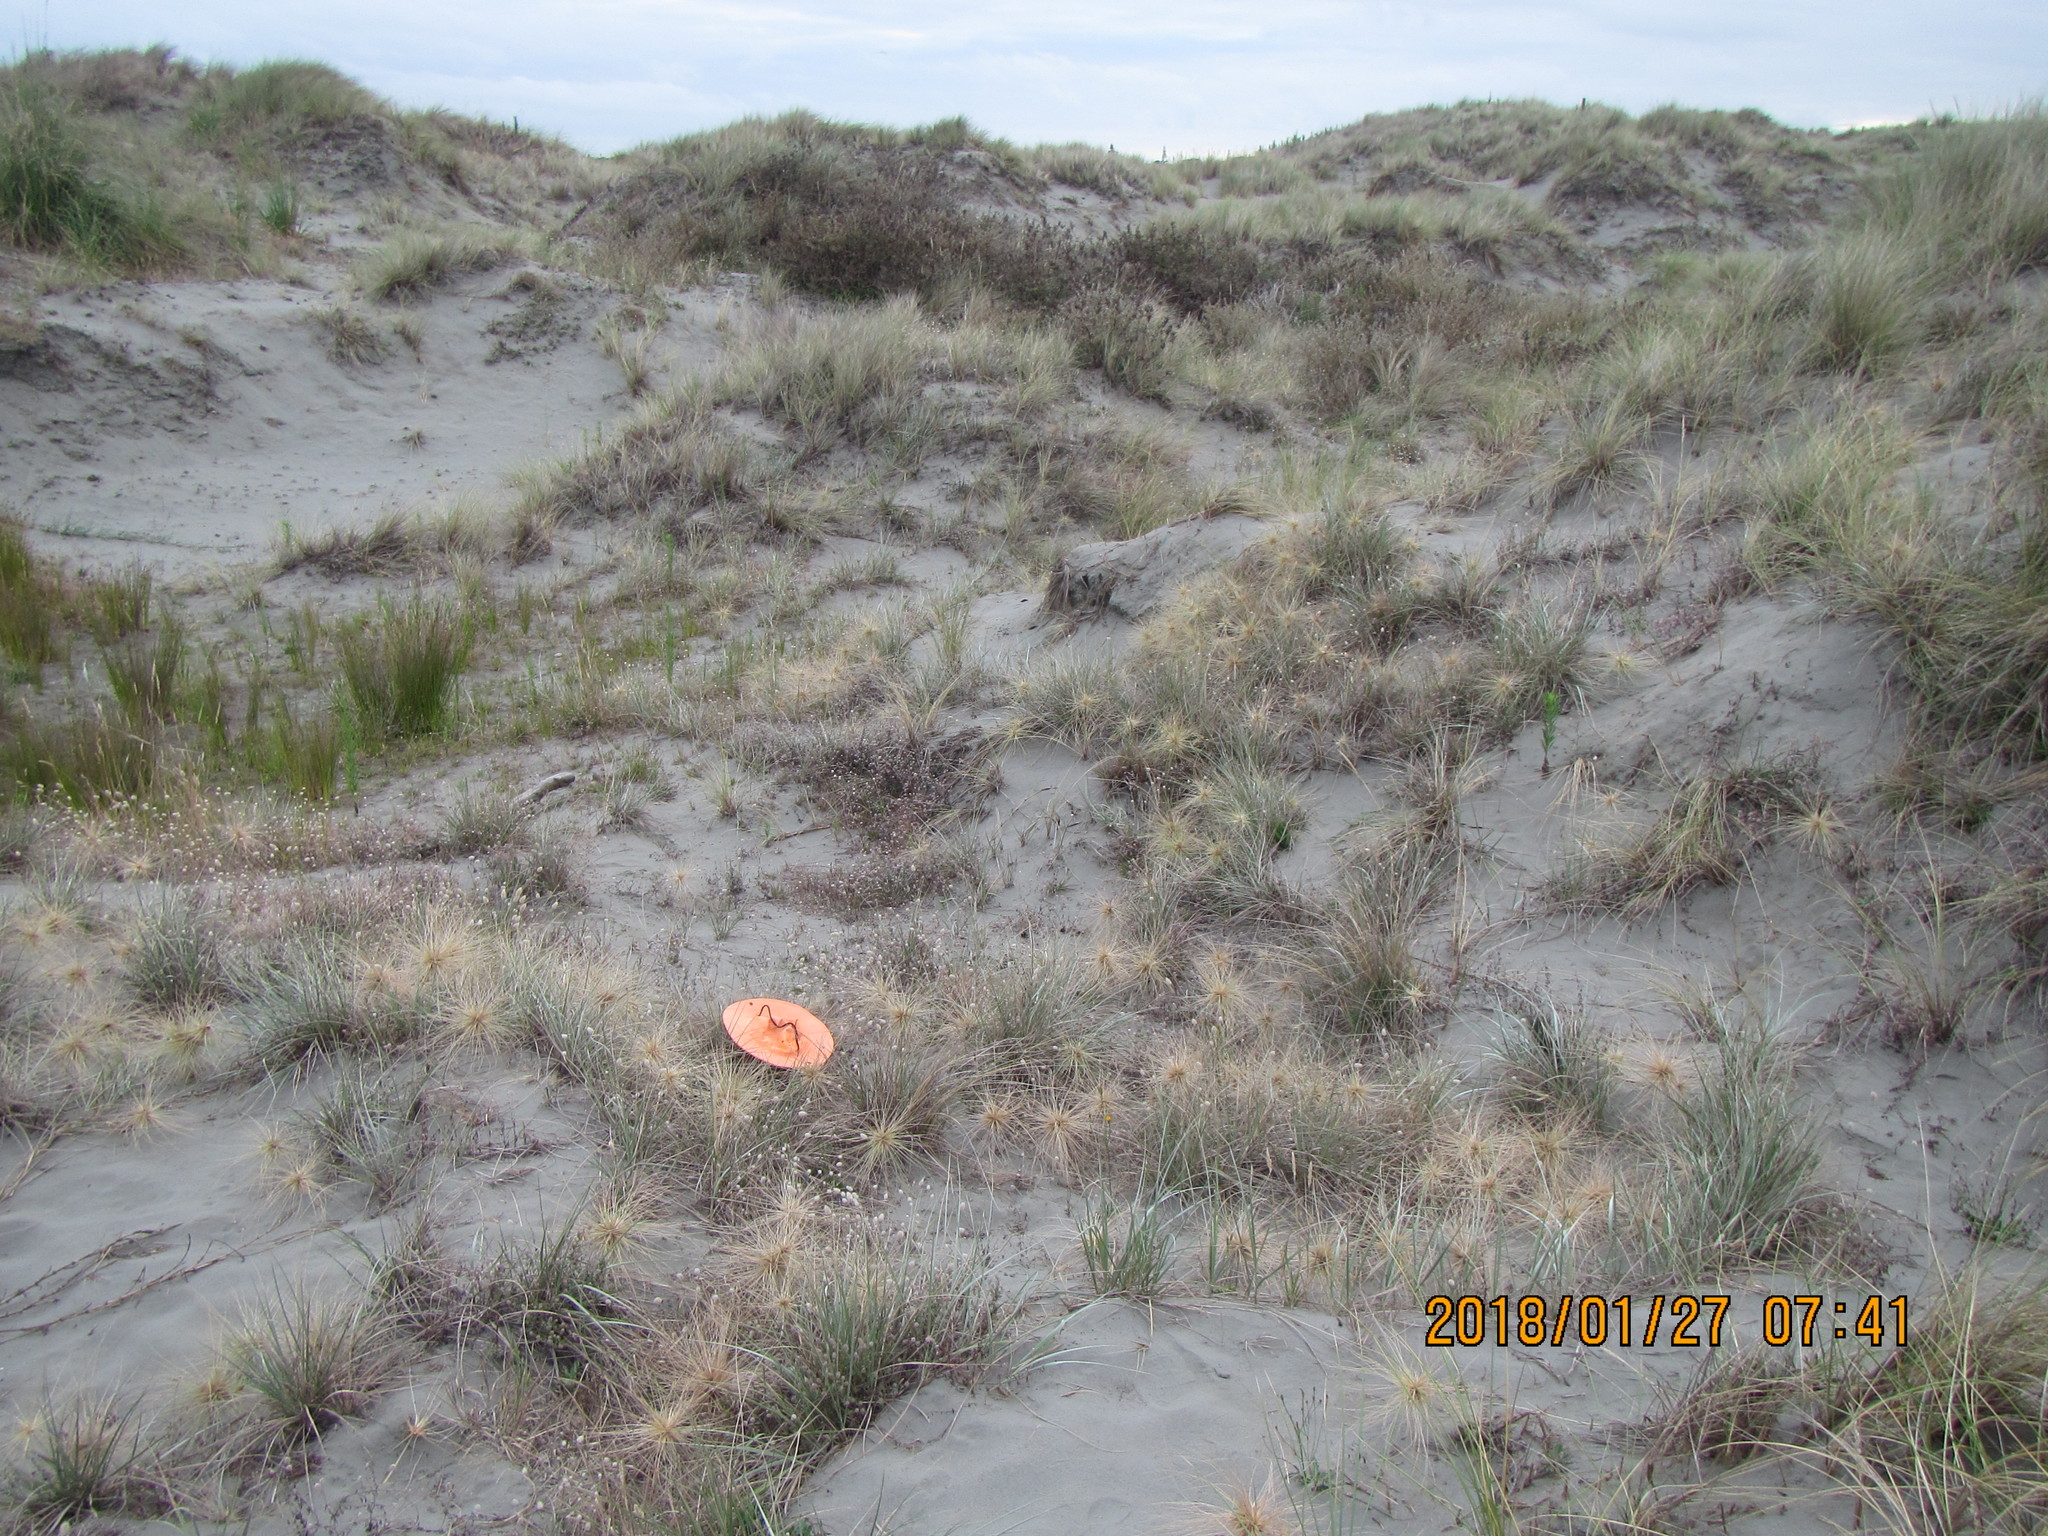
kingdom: Animalia
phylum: Arthropoda
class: Arachnida
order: Araneae
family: Theridiidae
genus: Steatoda
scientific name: Steatoda capensis
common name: Cobweb weaver
